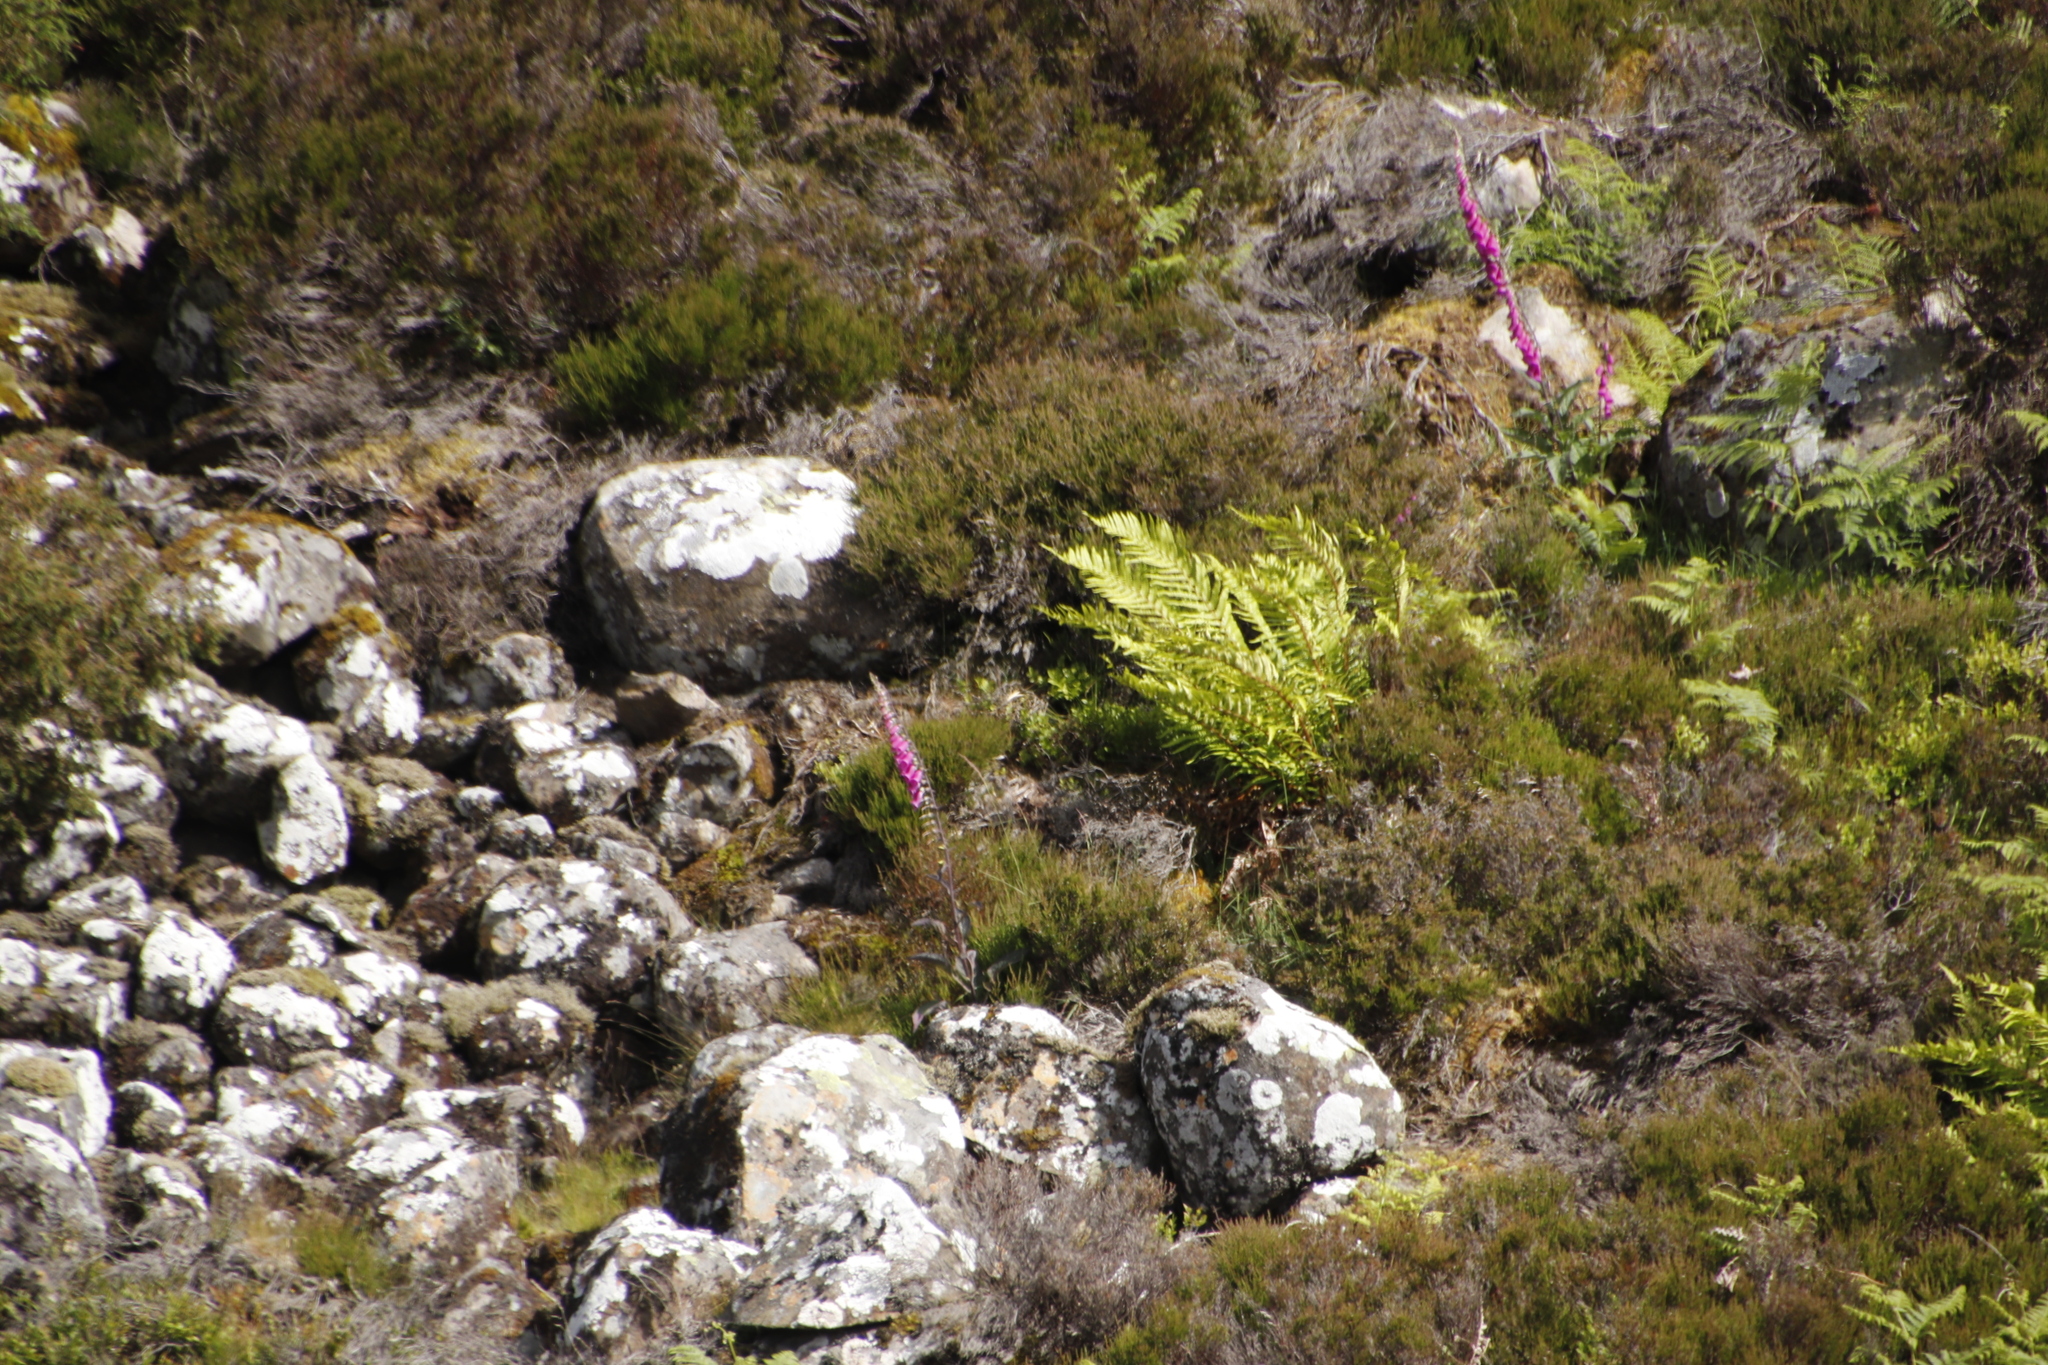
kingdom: Plantae
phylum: Tracheophyta
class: Magnoliopsida
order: Lamiales
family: Plantaginaceae
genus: Digitalis
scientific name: Digitalis purpurea
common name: Foxglove
